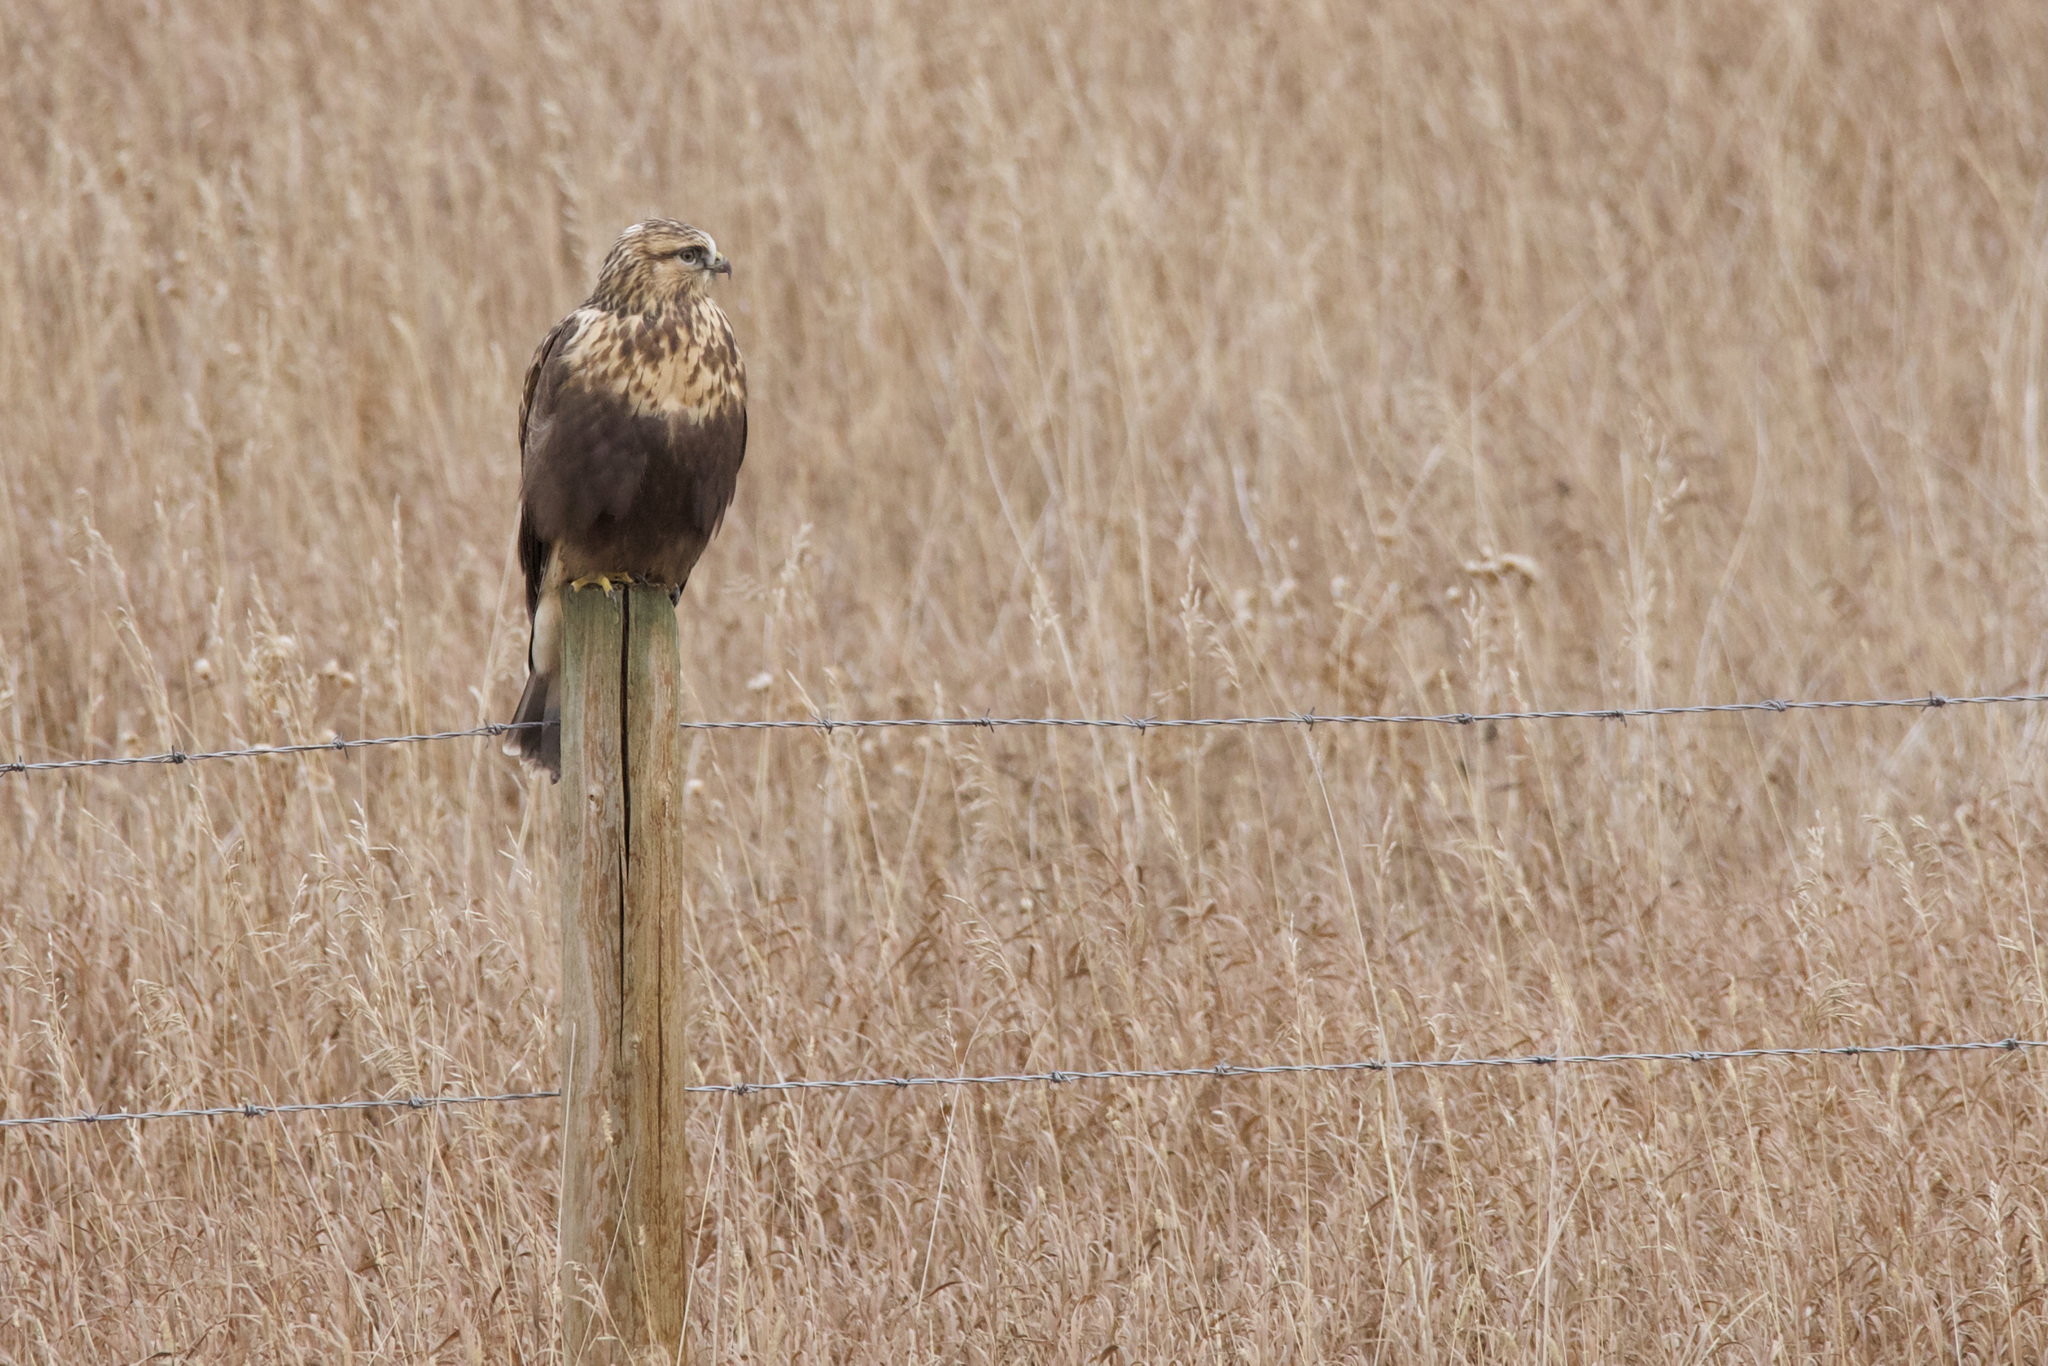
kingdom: Animalia
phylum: Chordata
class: Aves
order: Accipitriformes
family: Accipitridae
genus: Buteo
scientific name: Buteo lagopus
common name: Rough-legged buzzard
